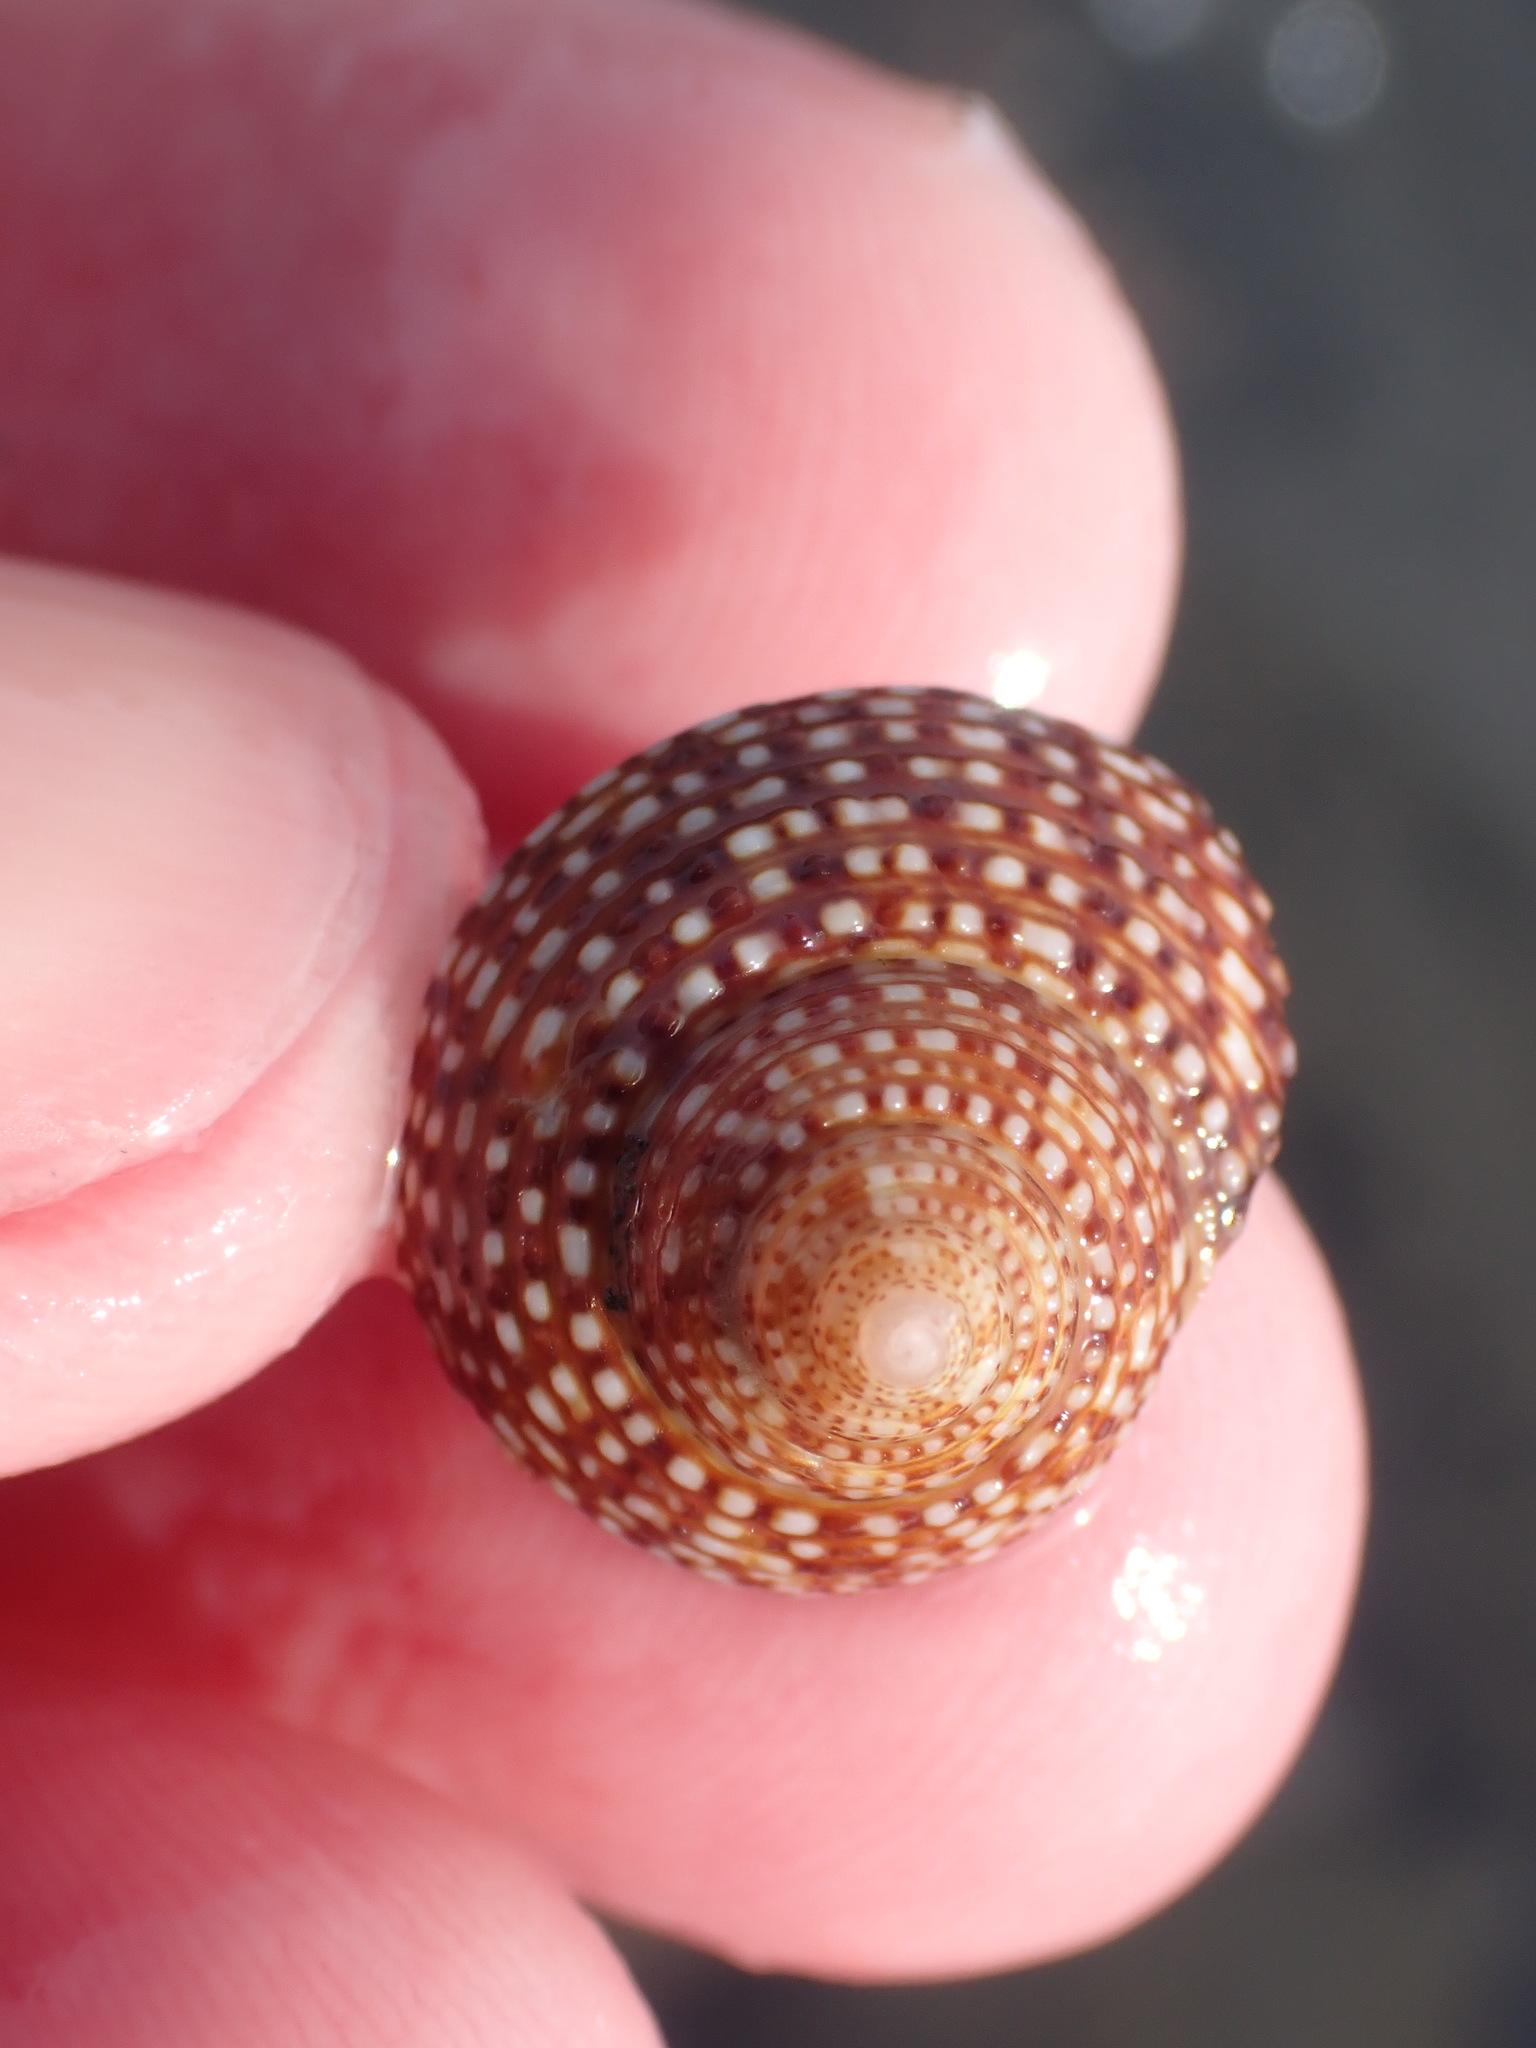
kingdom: Animalia
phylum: Mollusca
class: Gastropoda
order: Trochida
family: Calliostomatidae
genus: Maurea
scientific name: Maurea punctulata
